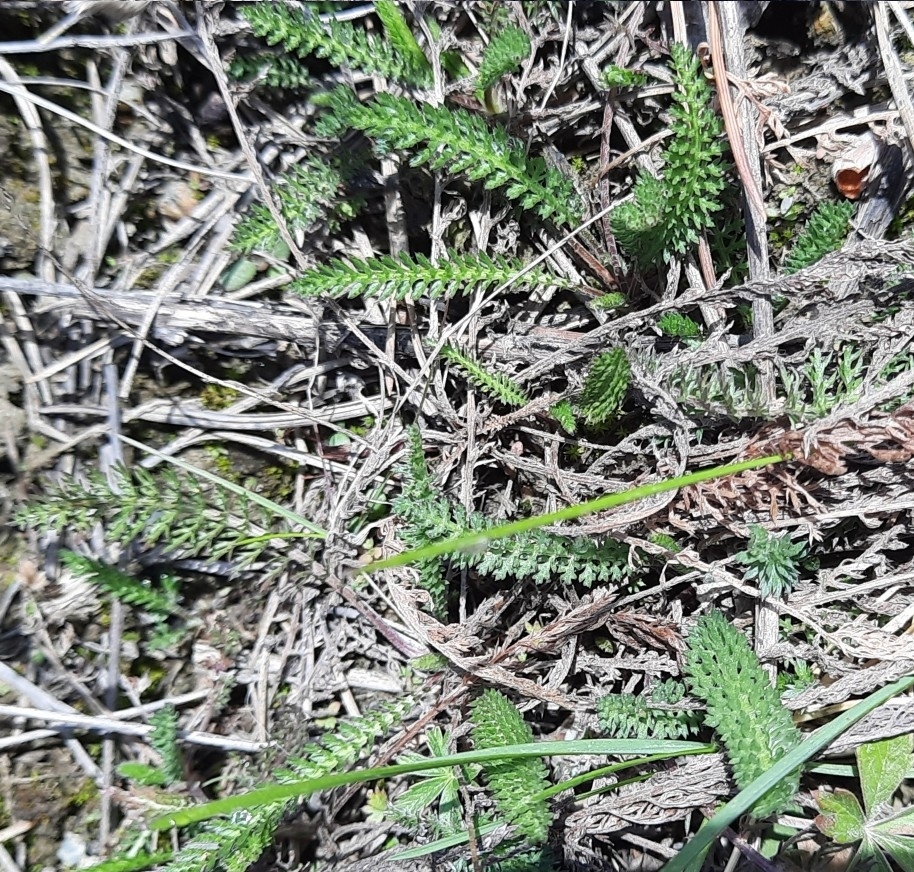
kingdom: Plantae
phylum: Tracheophyta
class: Magnoliopsida
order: Asterales
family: Asteraceae
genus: Achillea
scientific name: Achillea millefolium
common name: Yarrow
